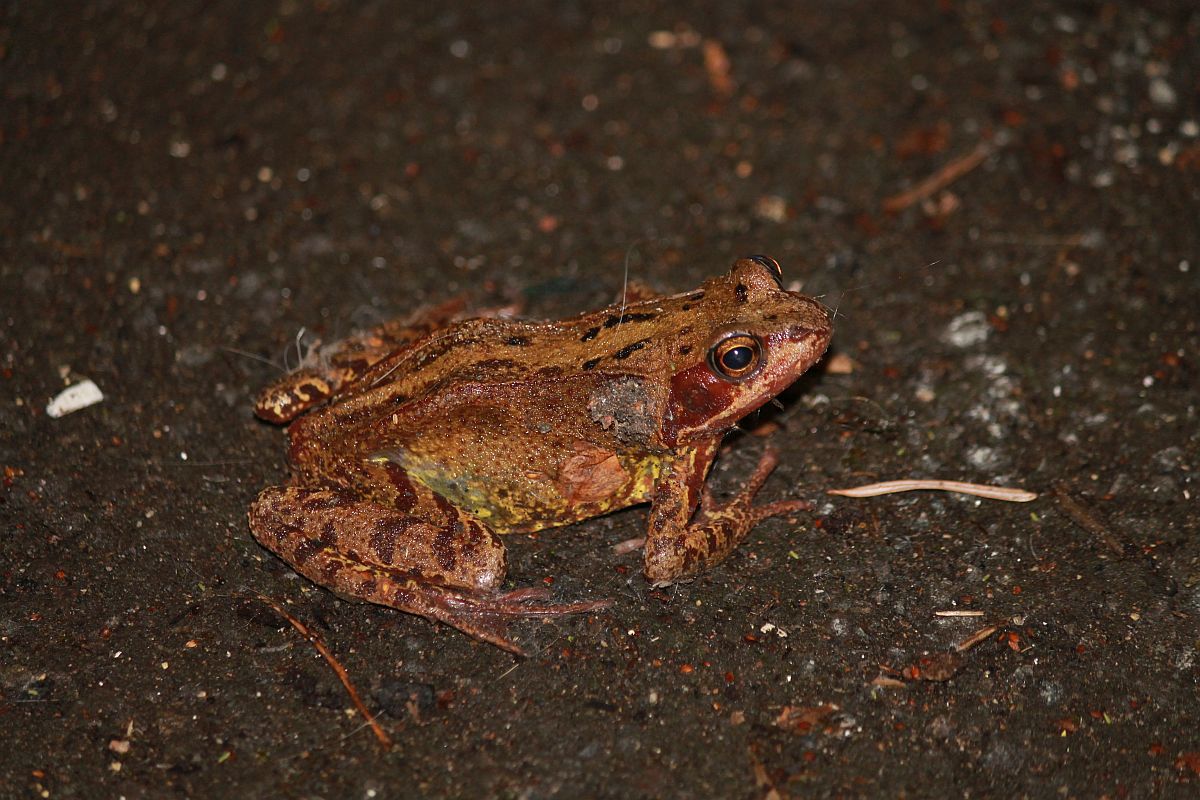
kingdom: Animalia
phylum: Chordata
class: Amphibia
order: Anura
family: Ranidae
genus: Rana
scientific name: Rana temporaria
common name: Common frog
